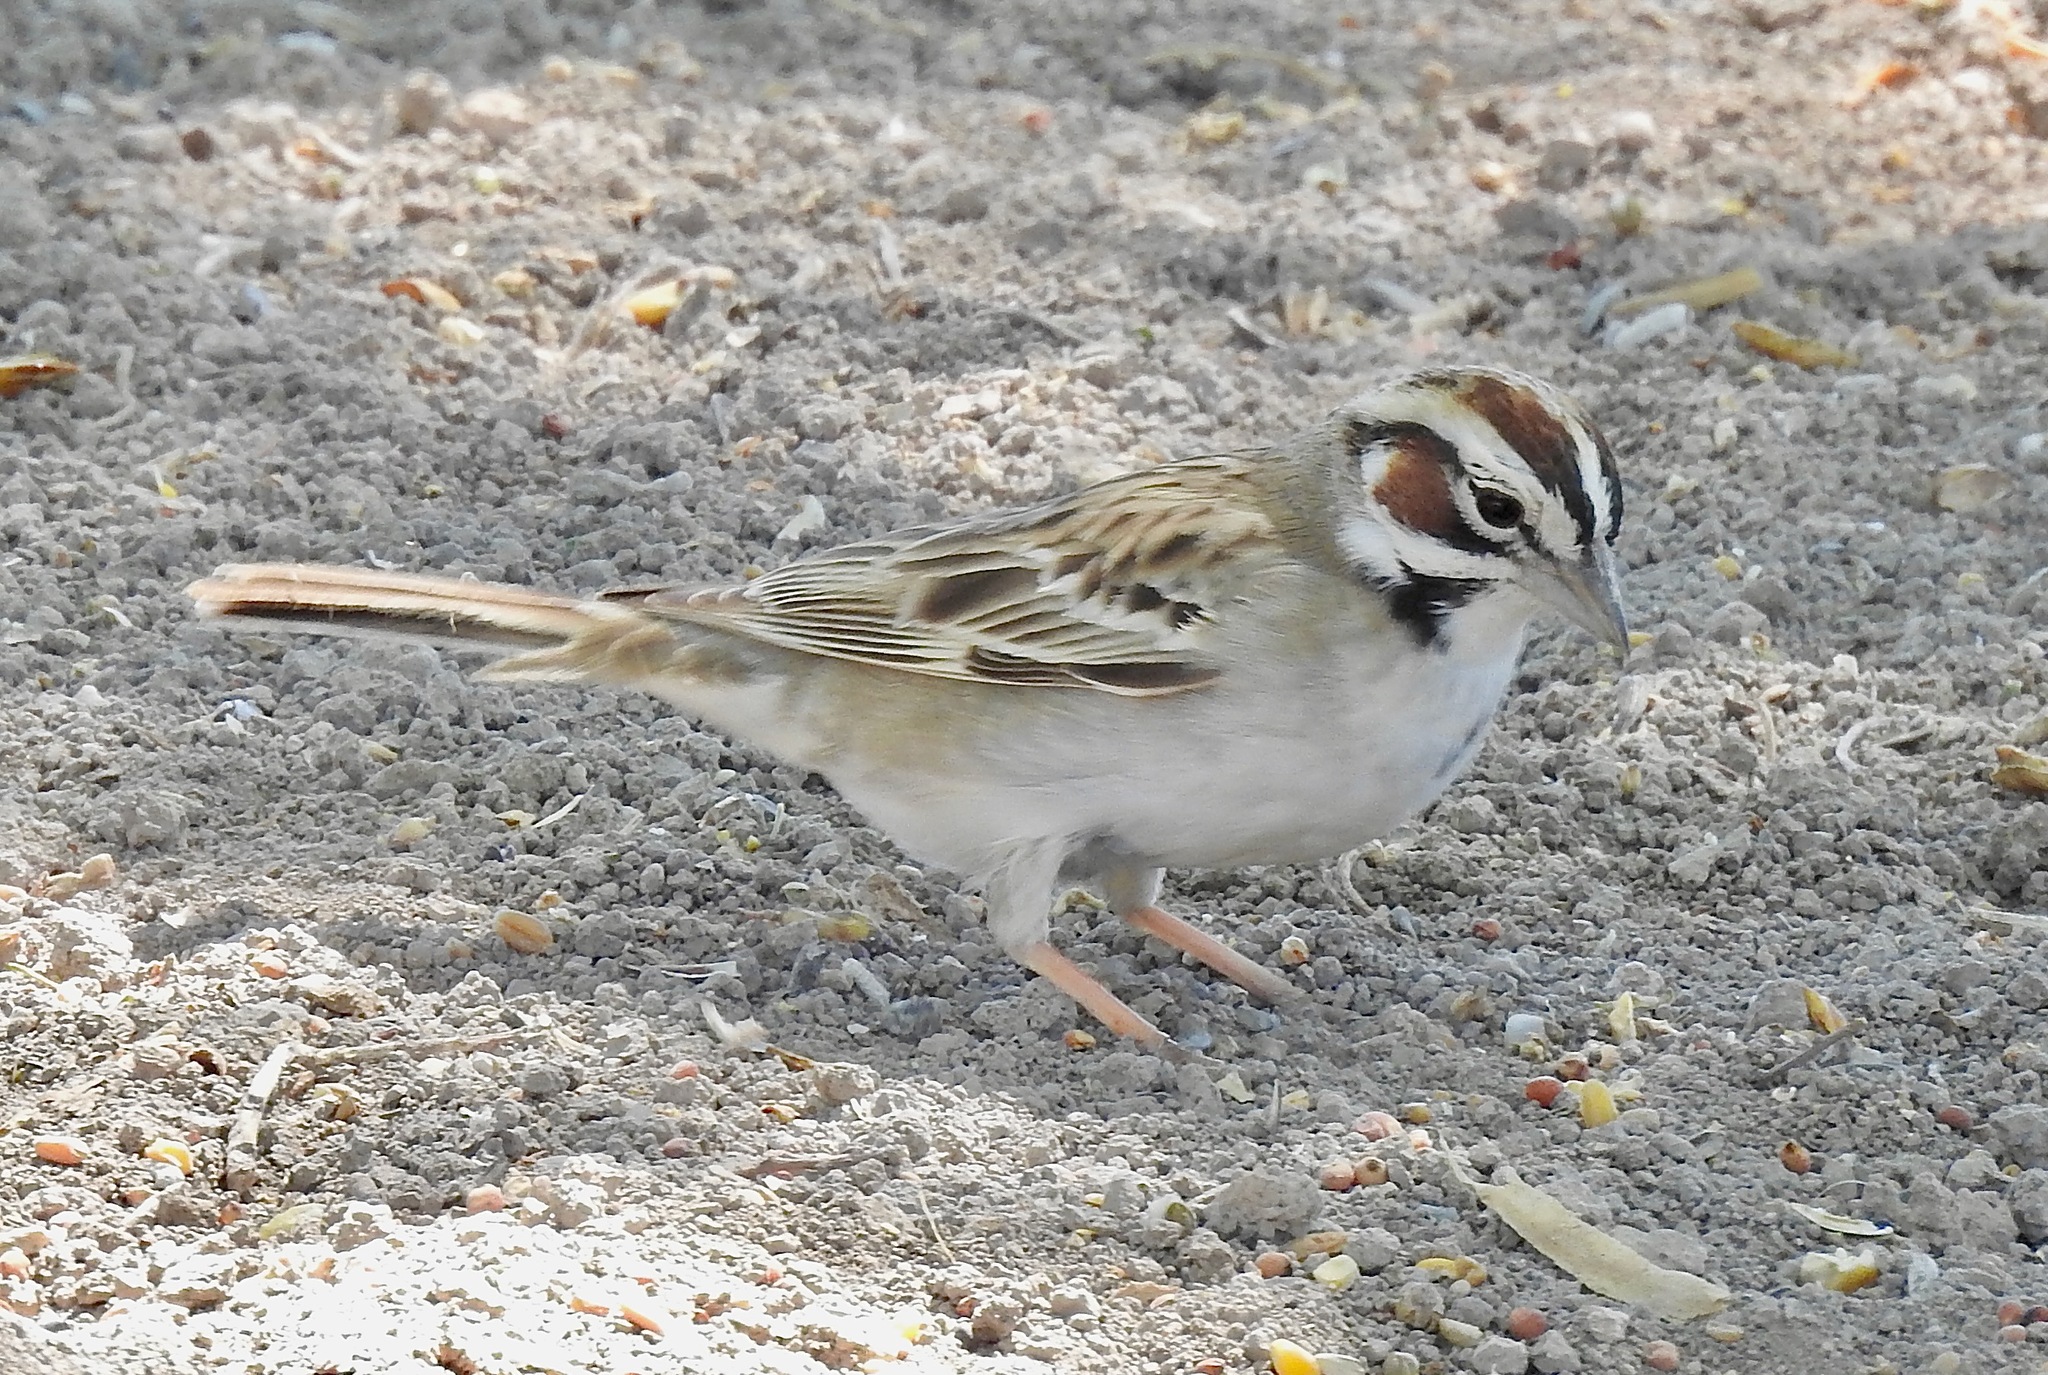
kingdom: Animalia
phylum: Chordata
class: Aves
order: Passeriformes
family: Passerellidae
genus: Chondestes
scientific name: Chondestes grammacus
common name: Lark sparrow
